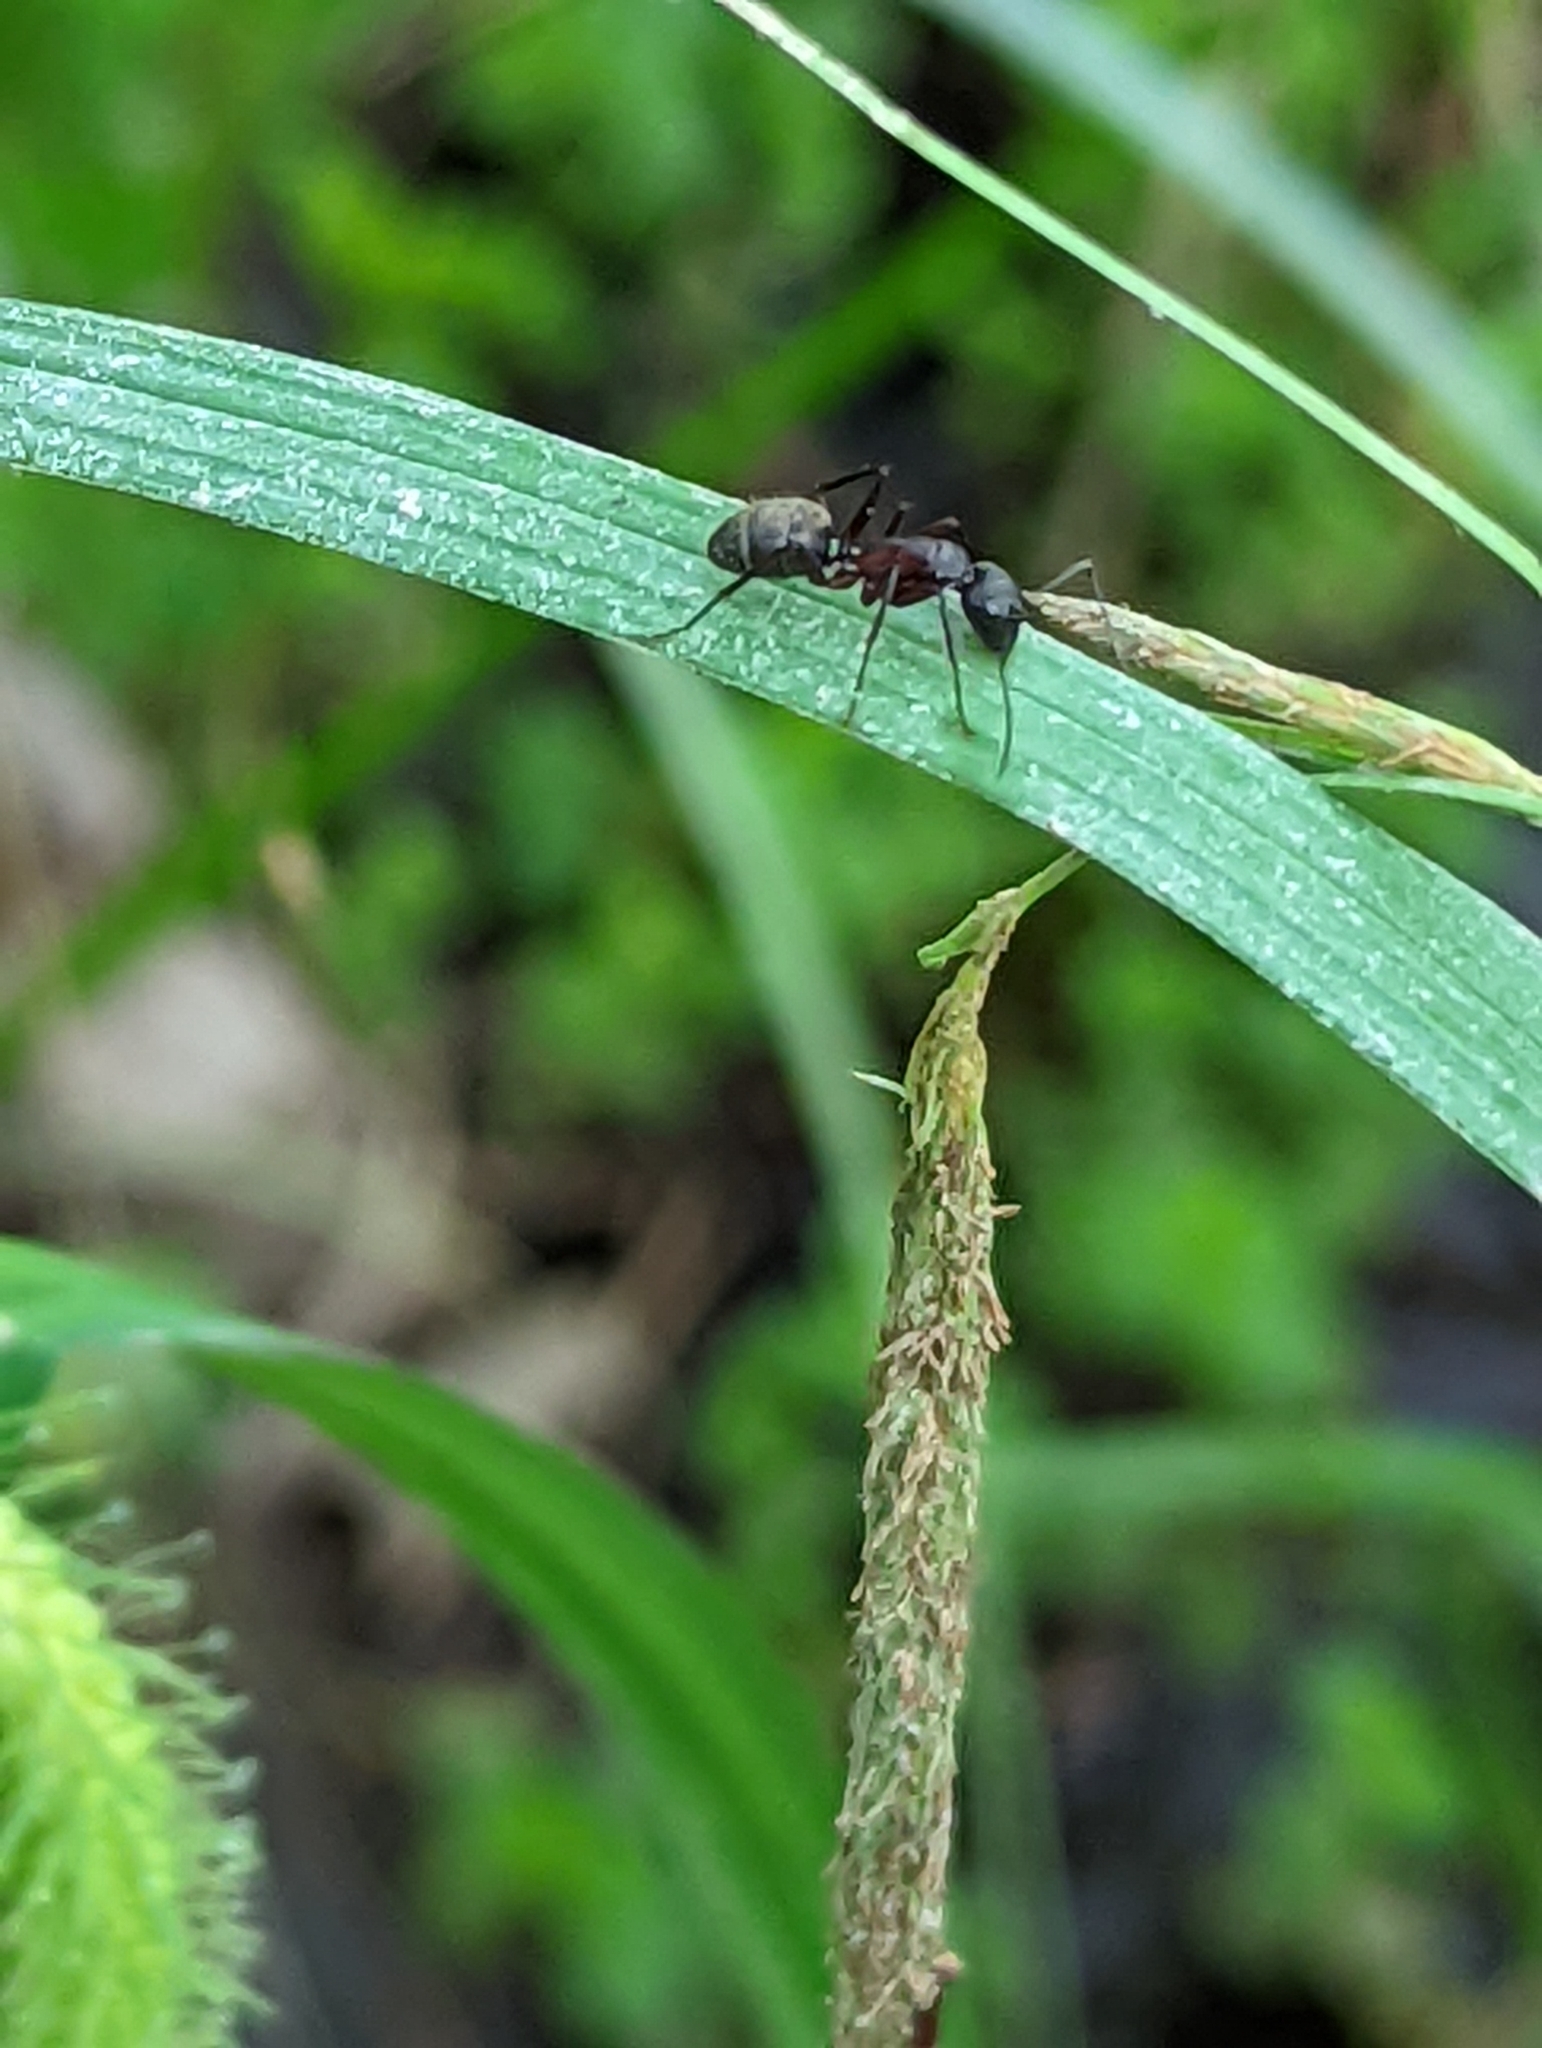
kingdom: Animalia
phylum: Arthropoda
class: Insecta
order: Hymenoptera
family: Formicidae
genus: Camponotus
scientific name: Camponotus chromaiodes
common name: Red carpenter ant
